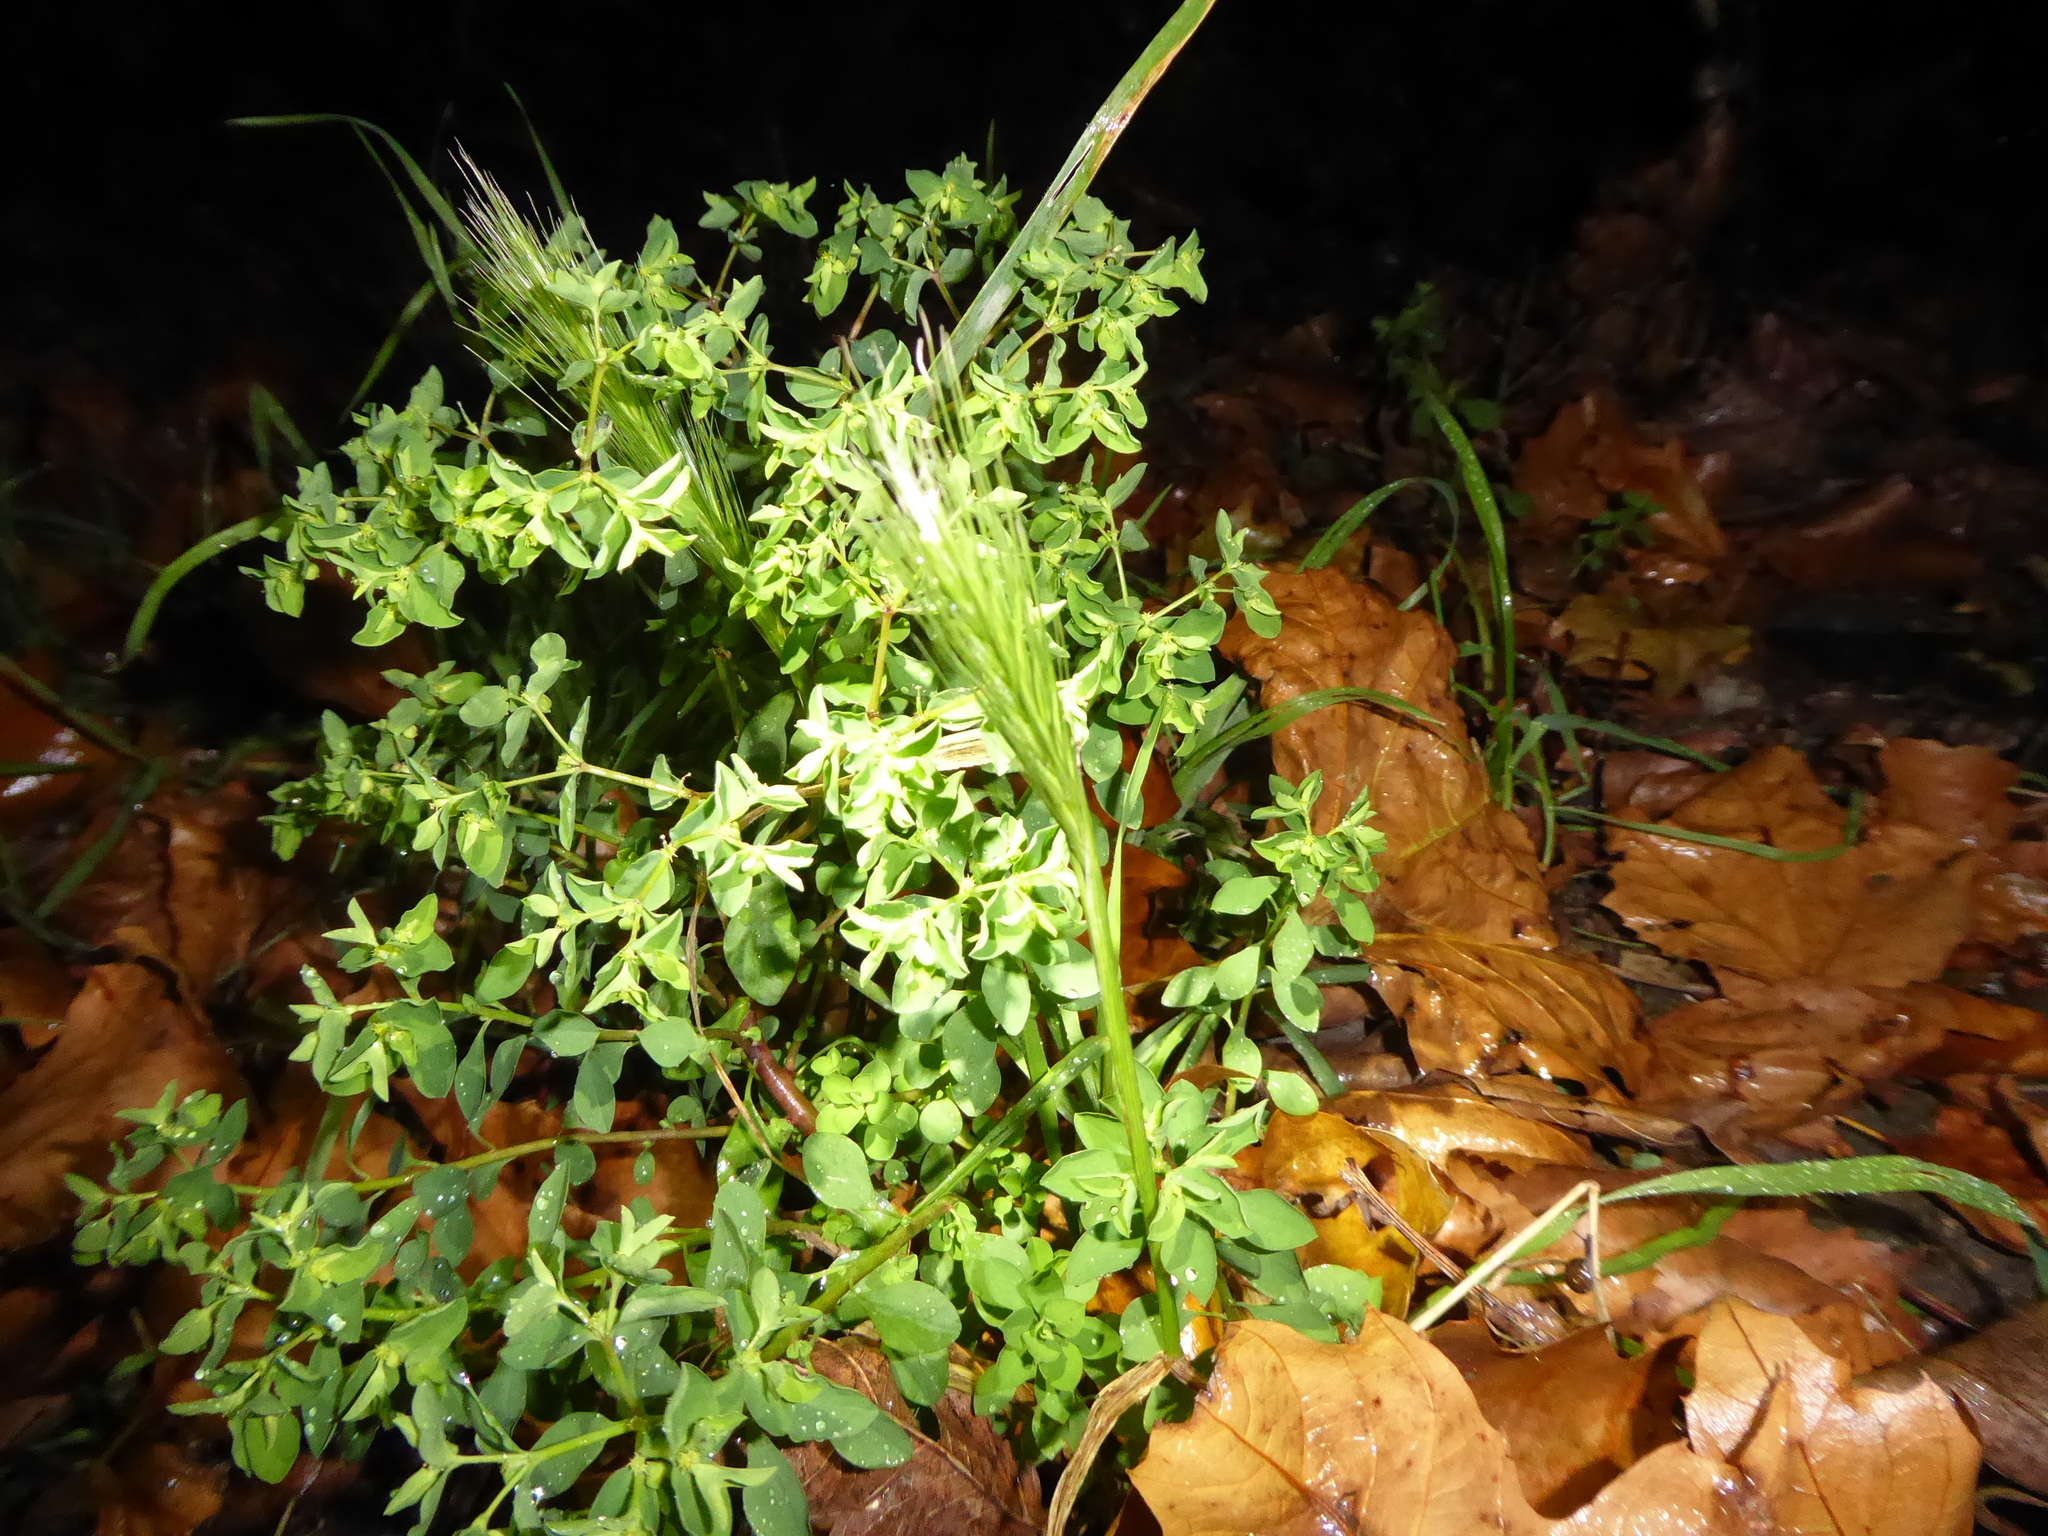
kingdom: Plantae
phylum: Tracheophyta
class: Liliopsida
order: Poales
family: Poaceae
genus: Hordeum
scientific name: Hordeum murinum
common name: Wall barley
